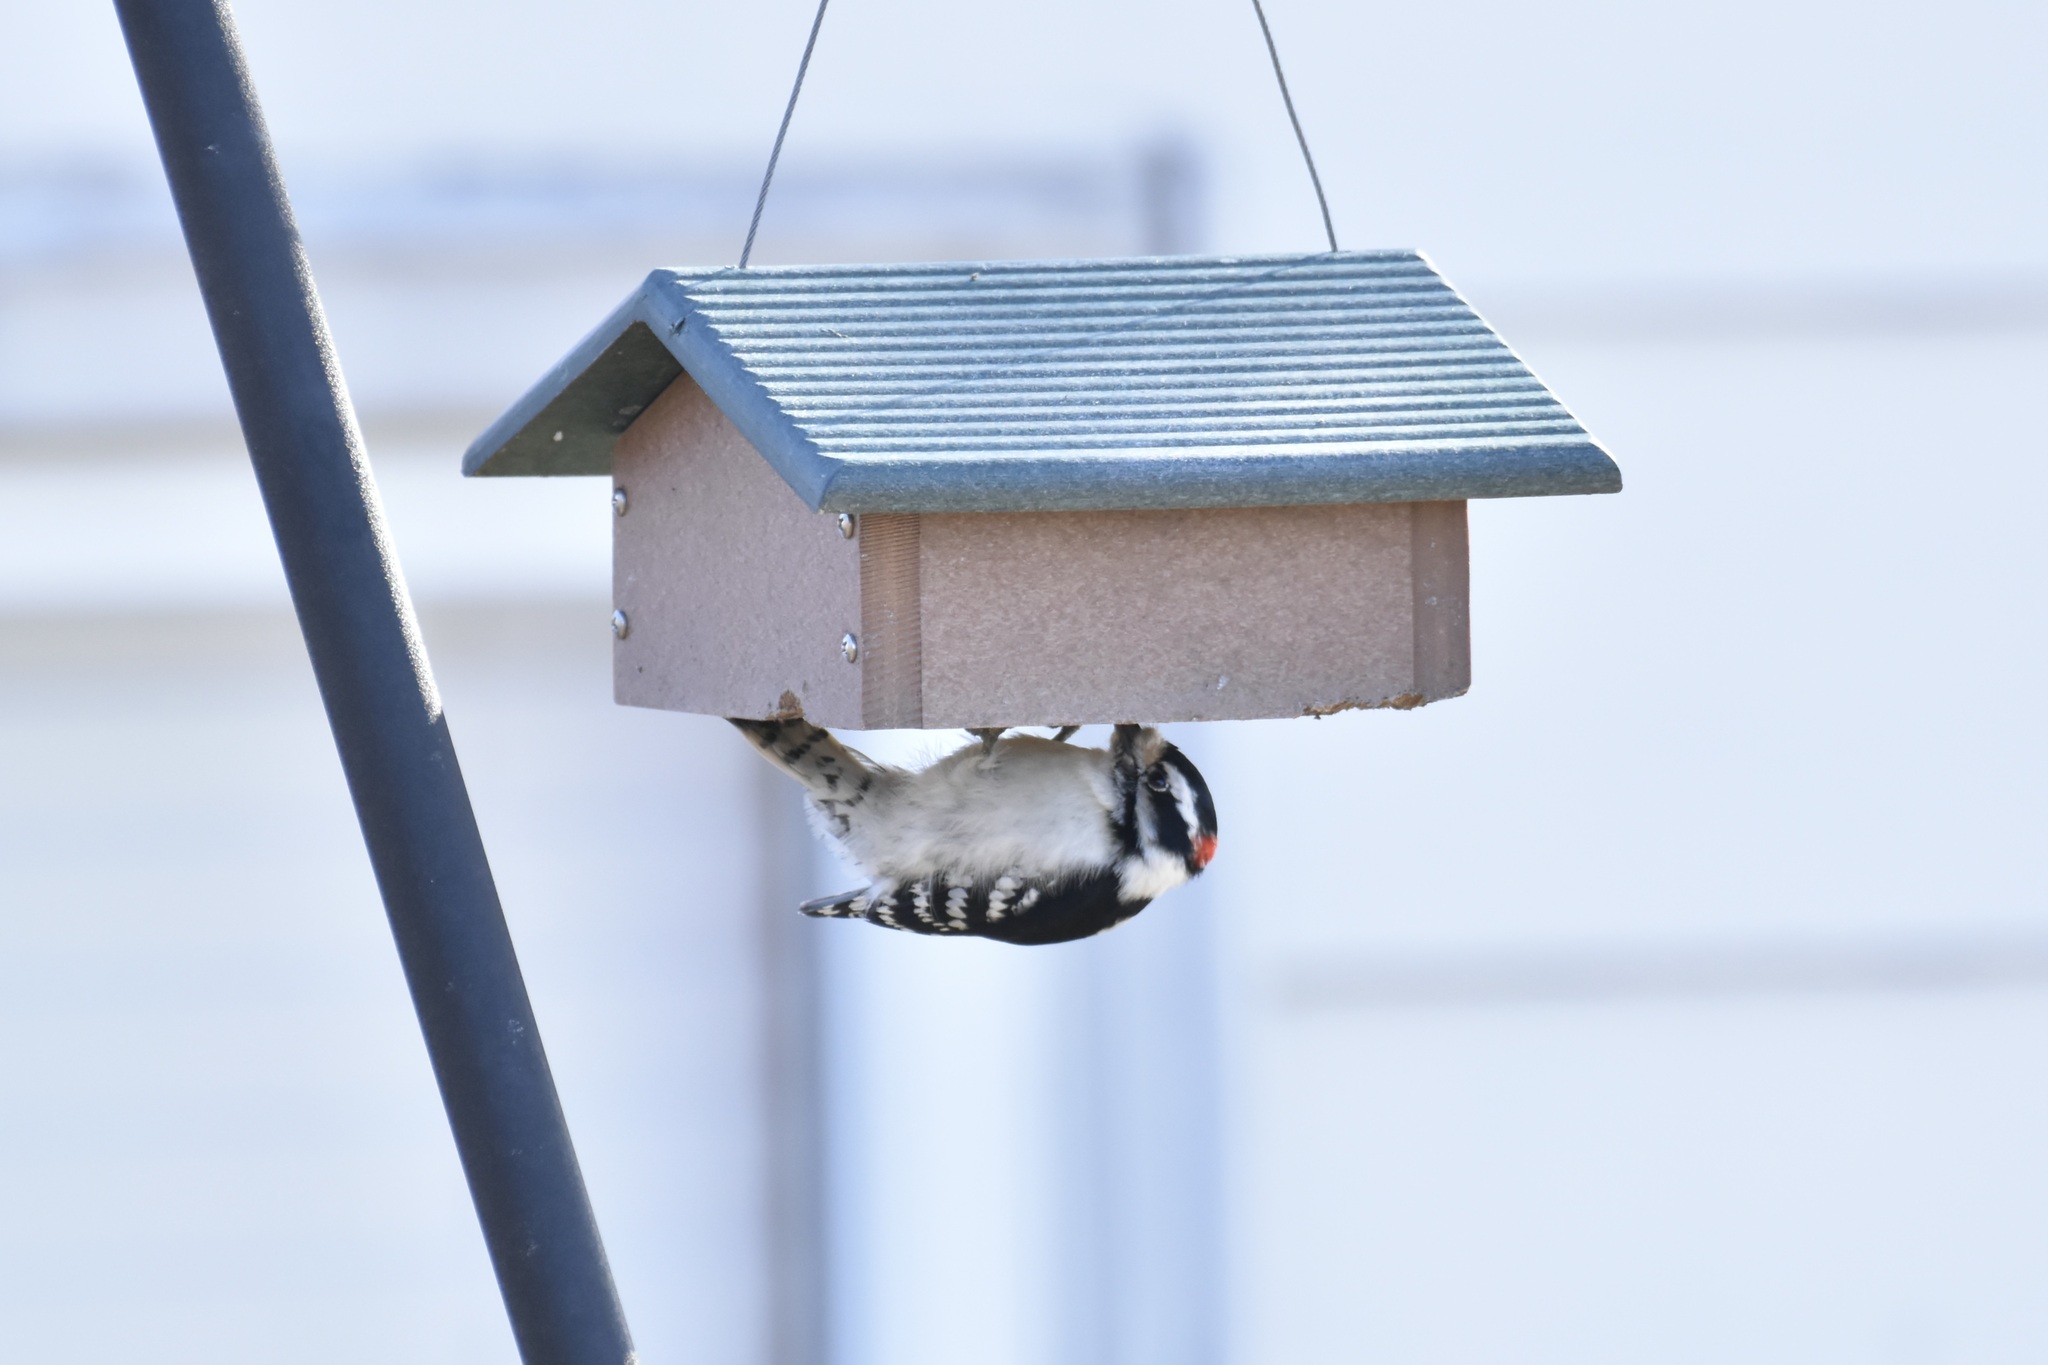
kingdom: Animalia
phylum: Chordata
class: Aves
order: Piciformes
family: Picidae
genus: Dryobates
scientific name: Dryobates pubescens
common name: Downy woodpecker
